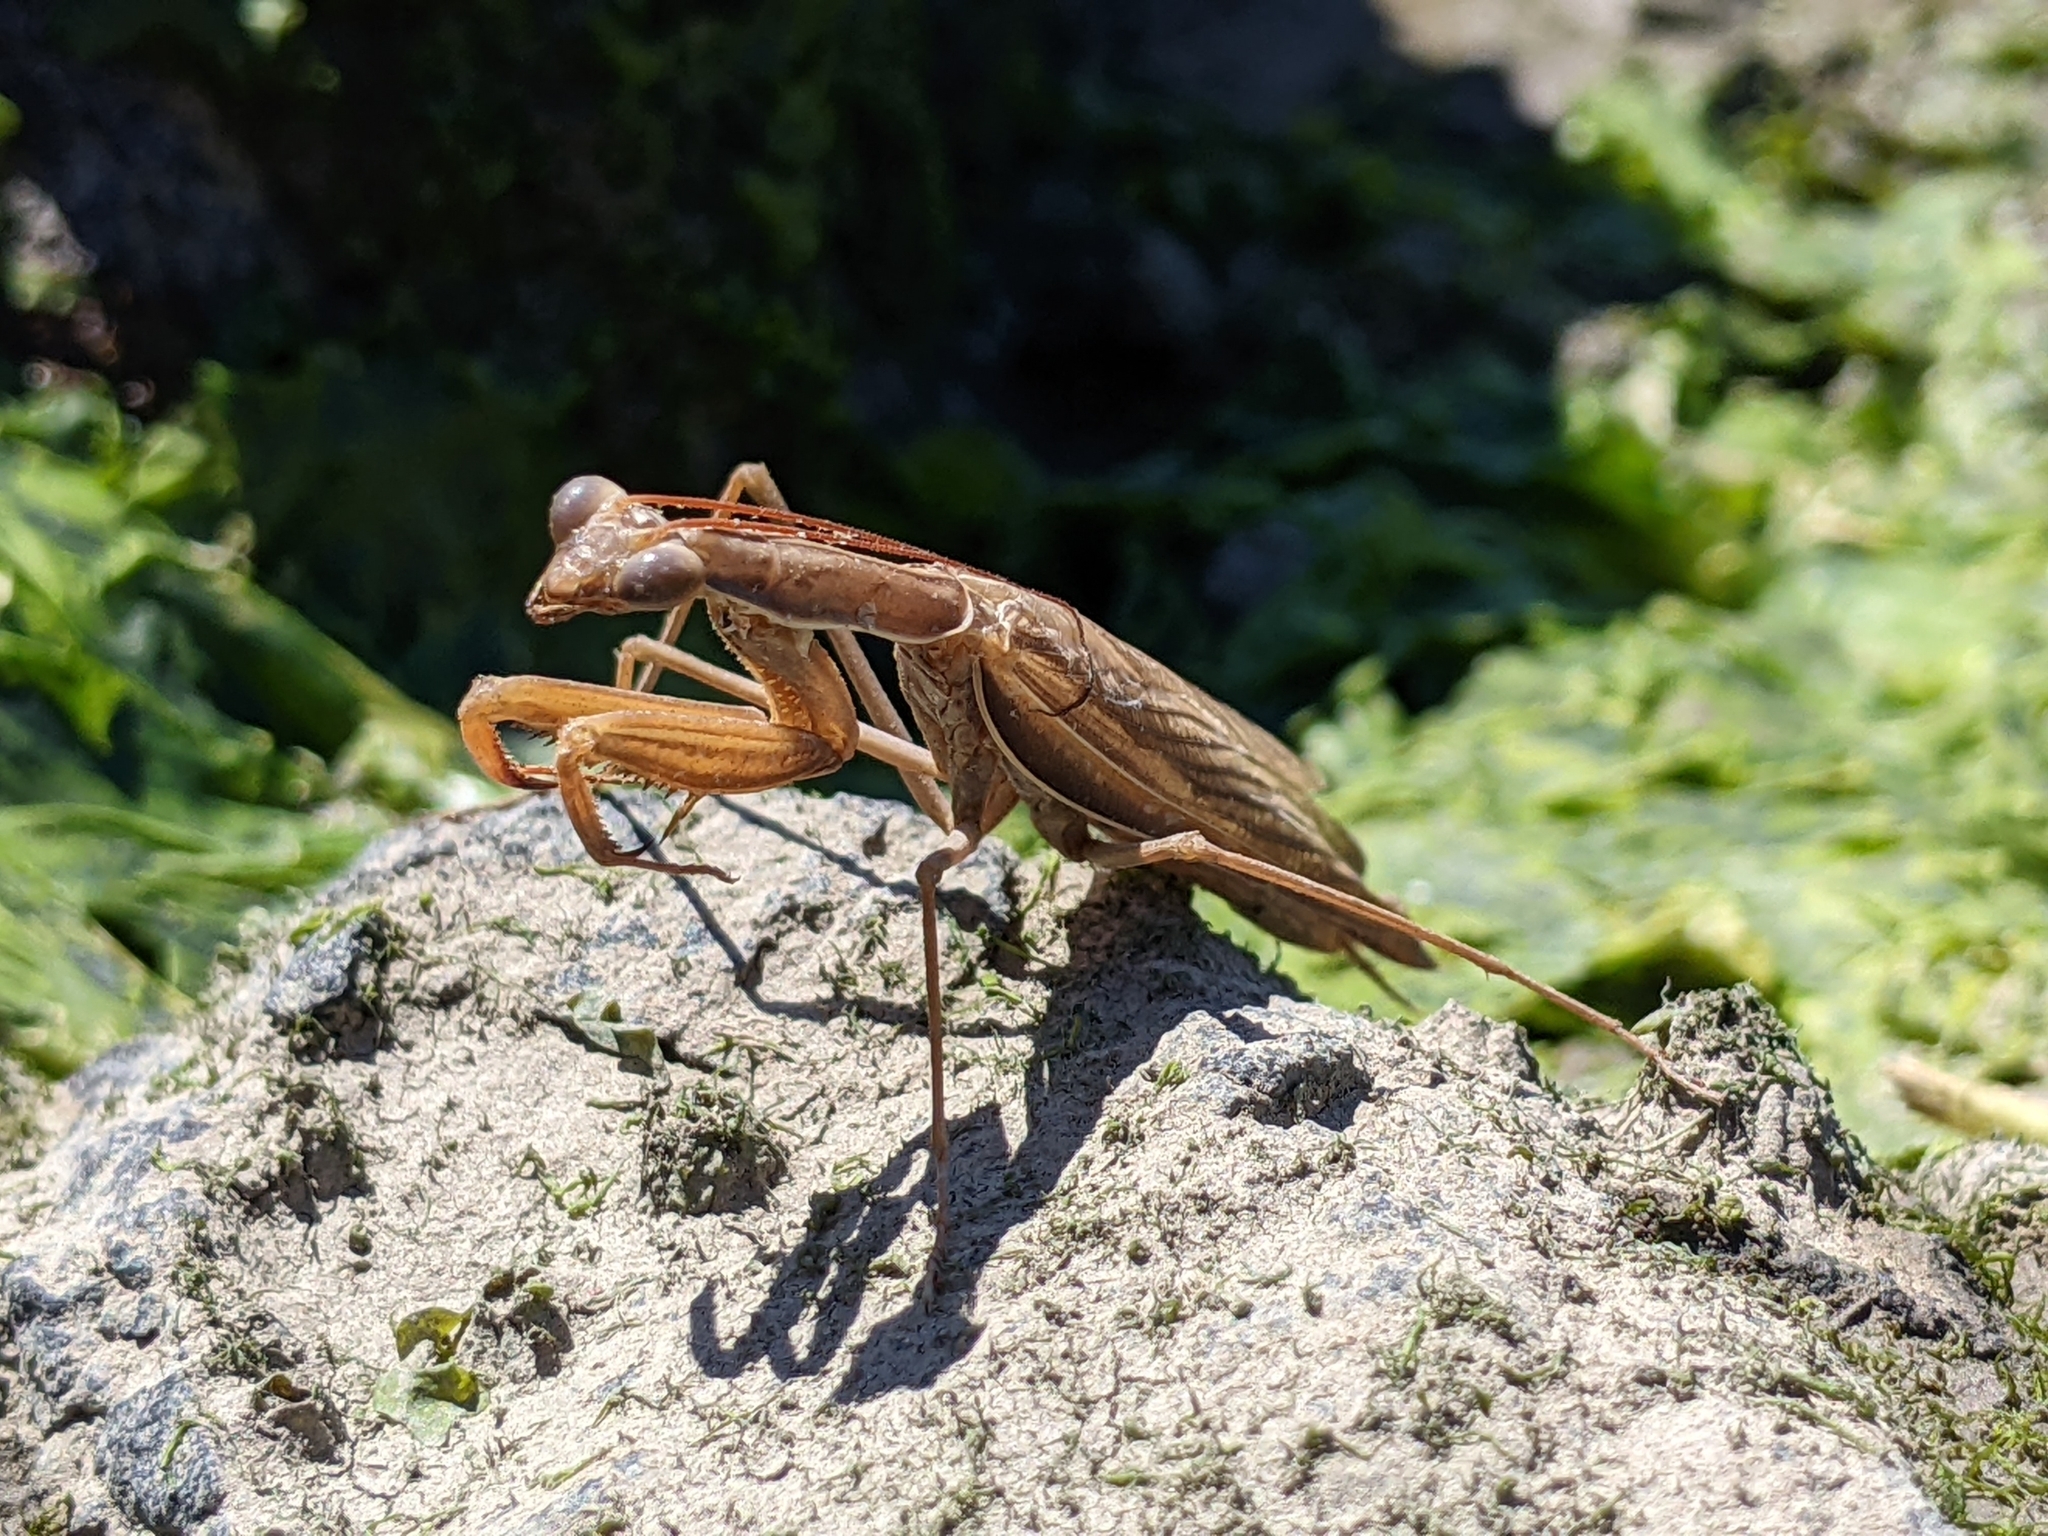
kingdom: Animalia
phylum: Arthropoda
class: Insecta
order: Mantodea
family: Mantidae
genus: Mantis
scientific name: Mantis religiosa
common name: Praying mantis
